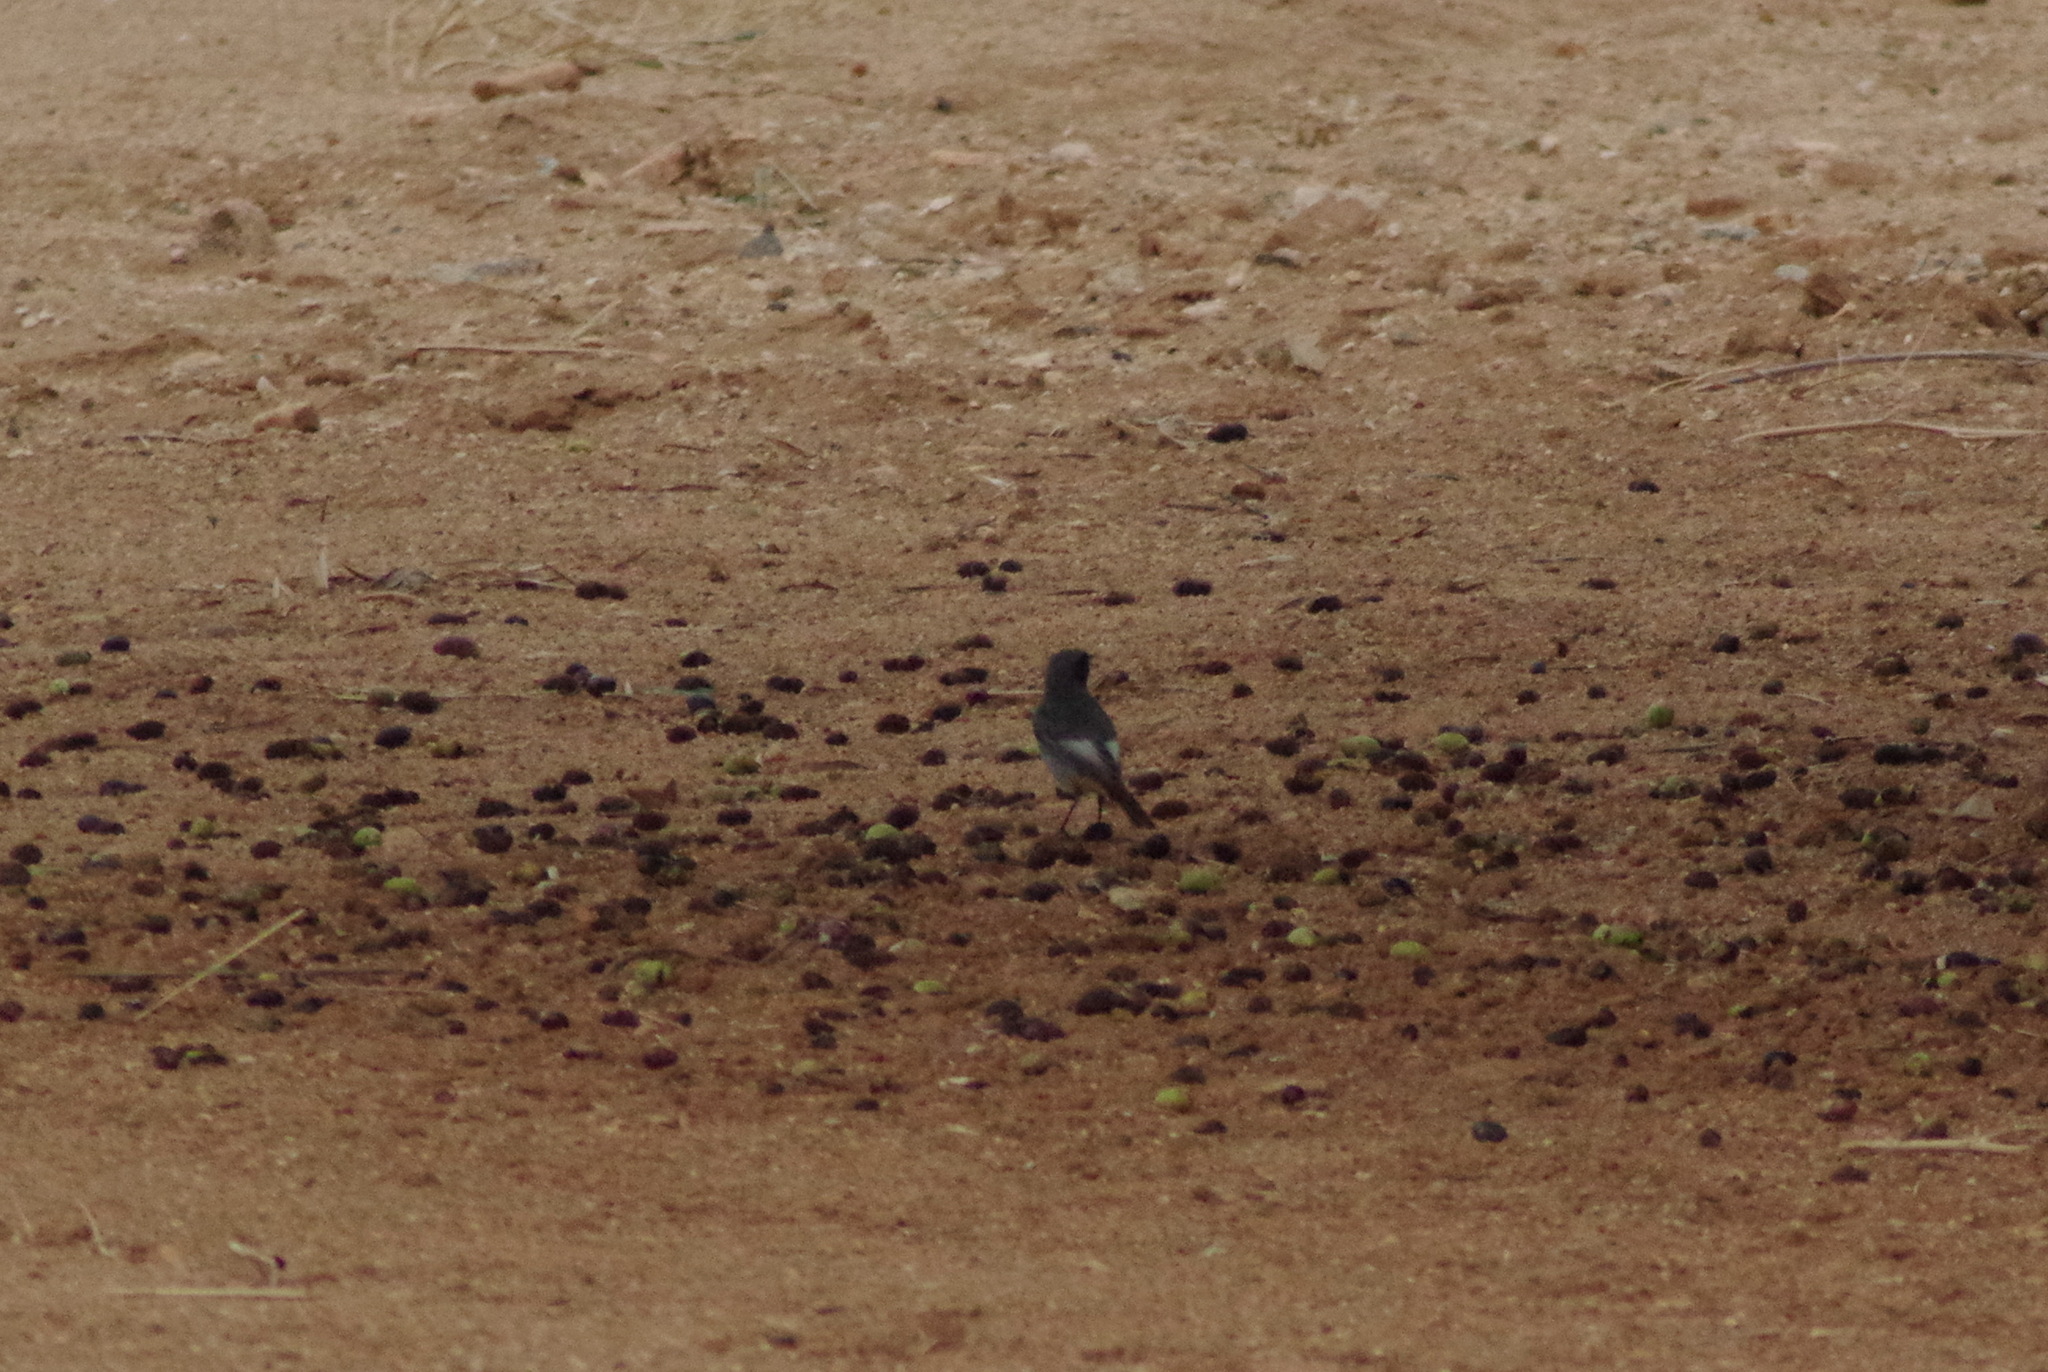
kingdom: Animalia
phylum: Chordata
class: Aves
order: Passeriformes
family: Muscicapidae
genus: Phoenicurus
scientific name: Phoenicurus ochruros
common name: Black redstart
